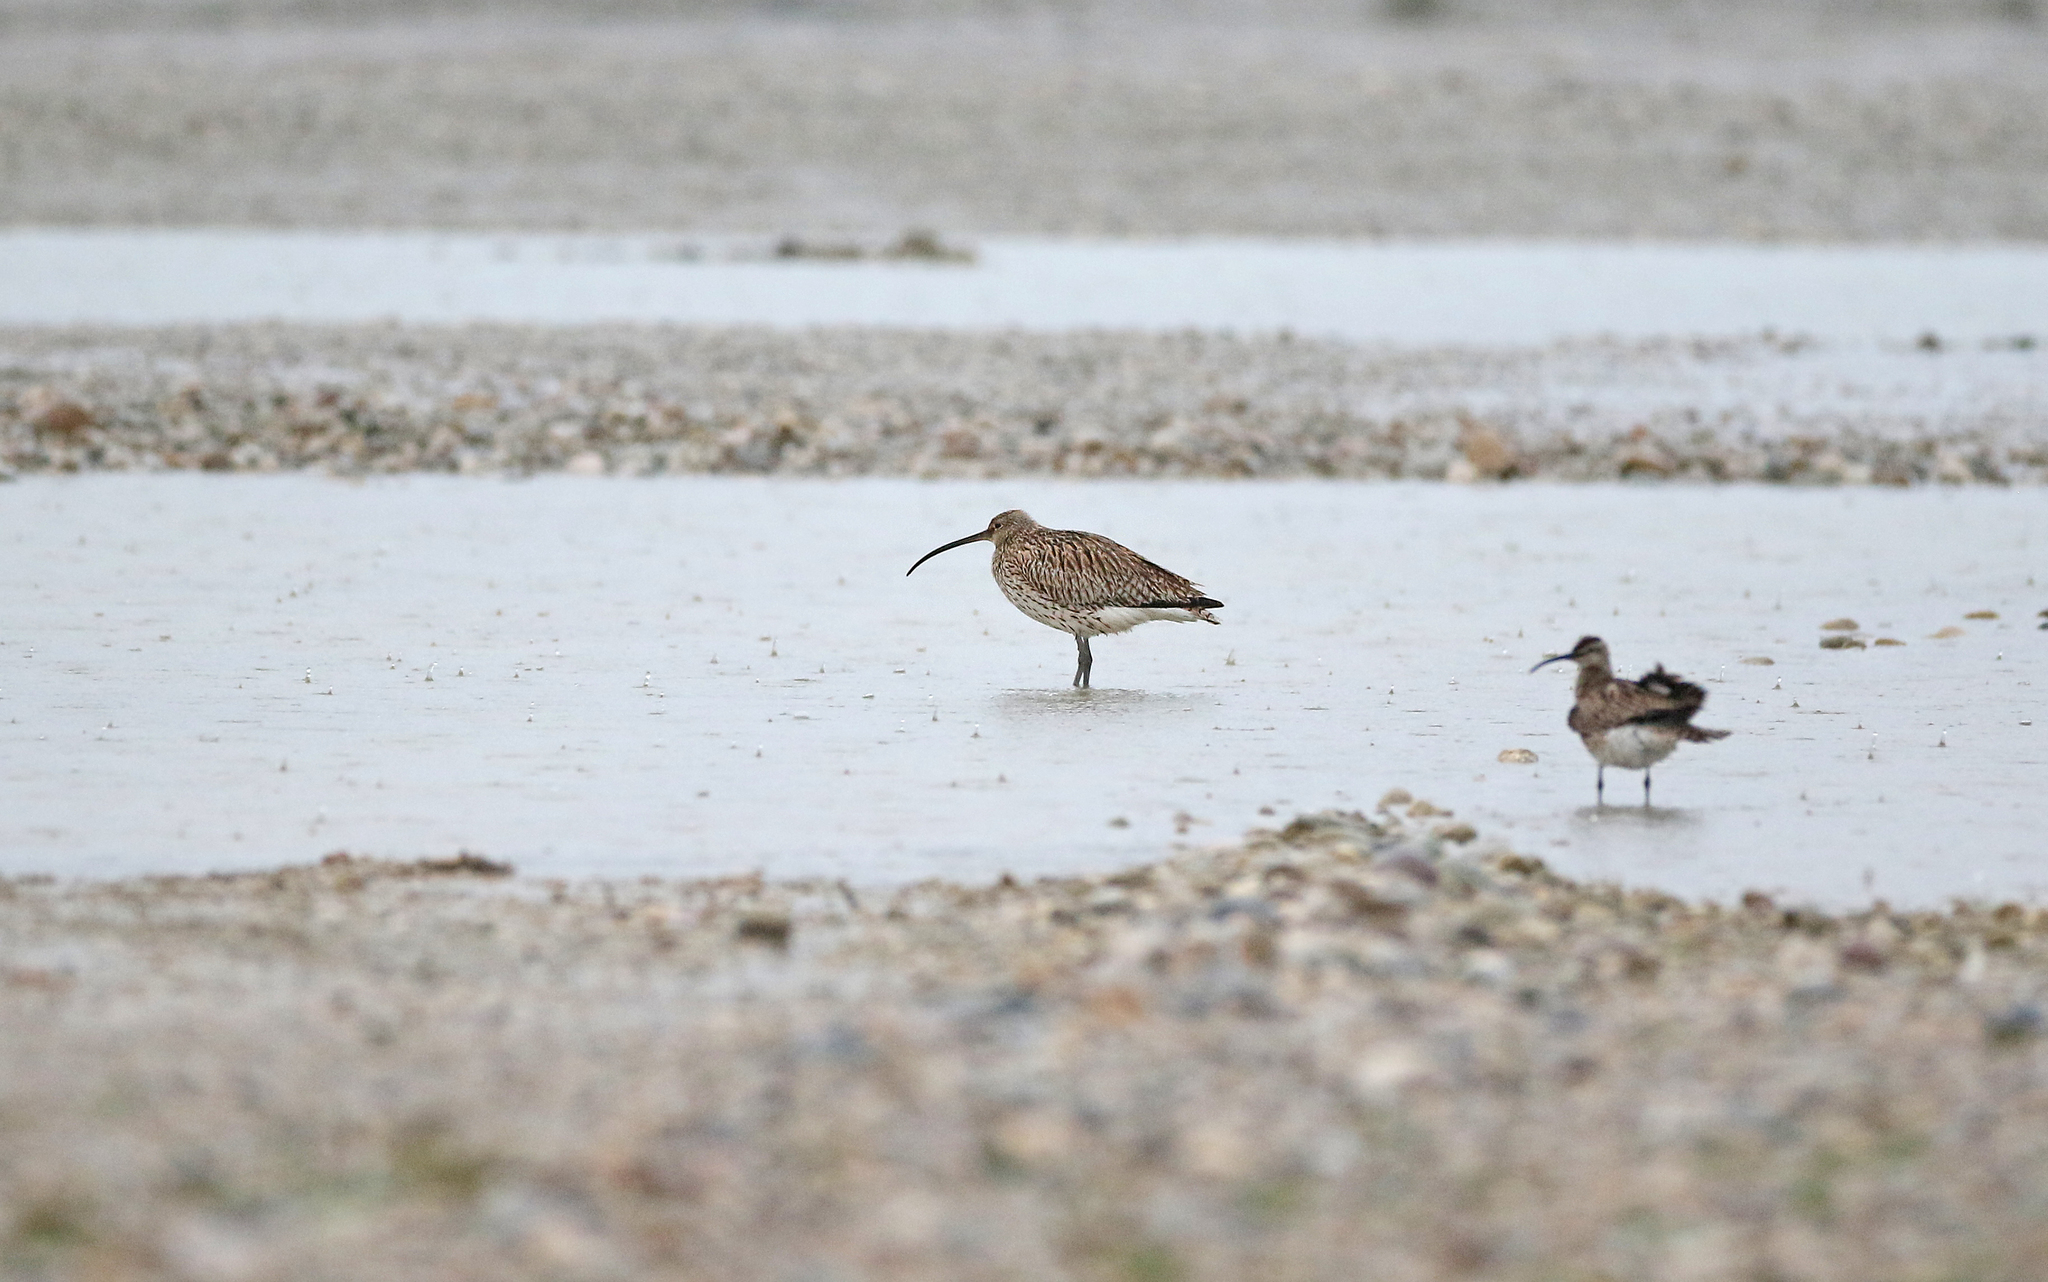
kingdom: Animalia
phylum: Chordata
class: Aves
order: Charadriiformes
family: Scolopacidae
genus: Numenius
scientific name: Numenius arquata
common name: Eurasian curlew
